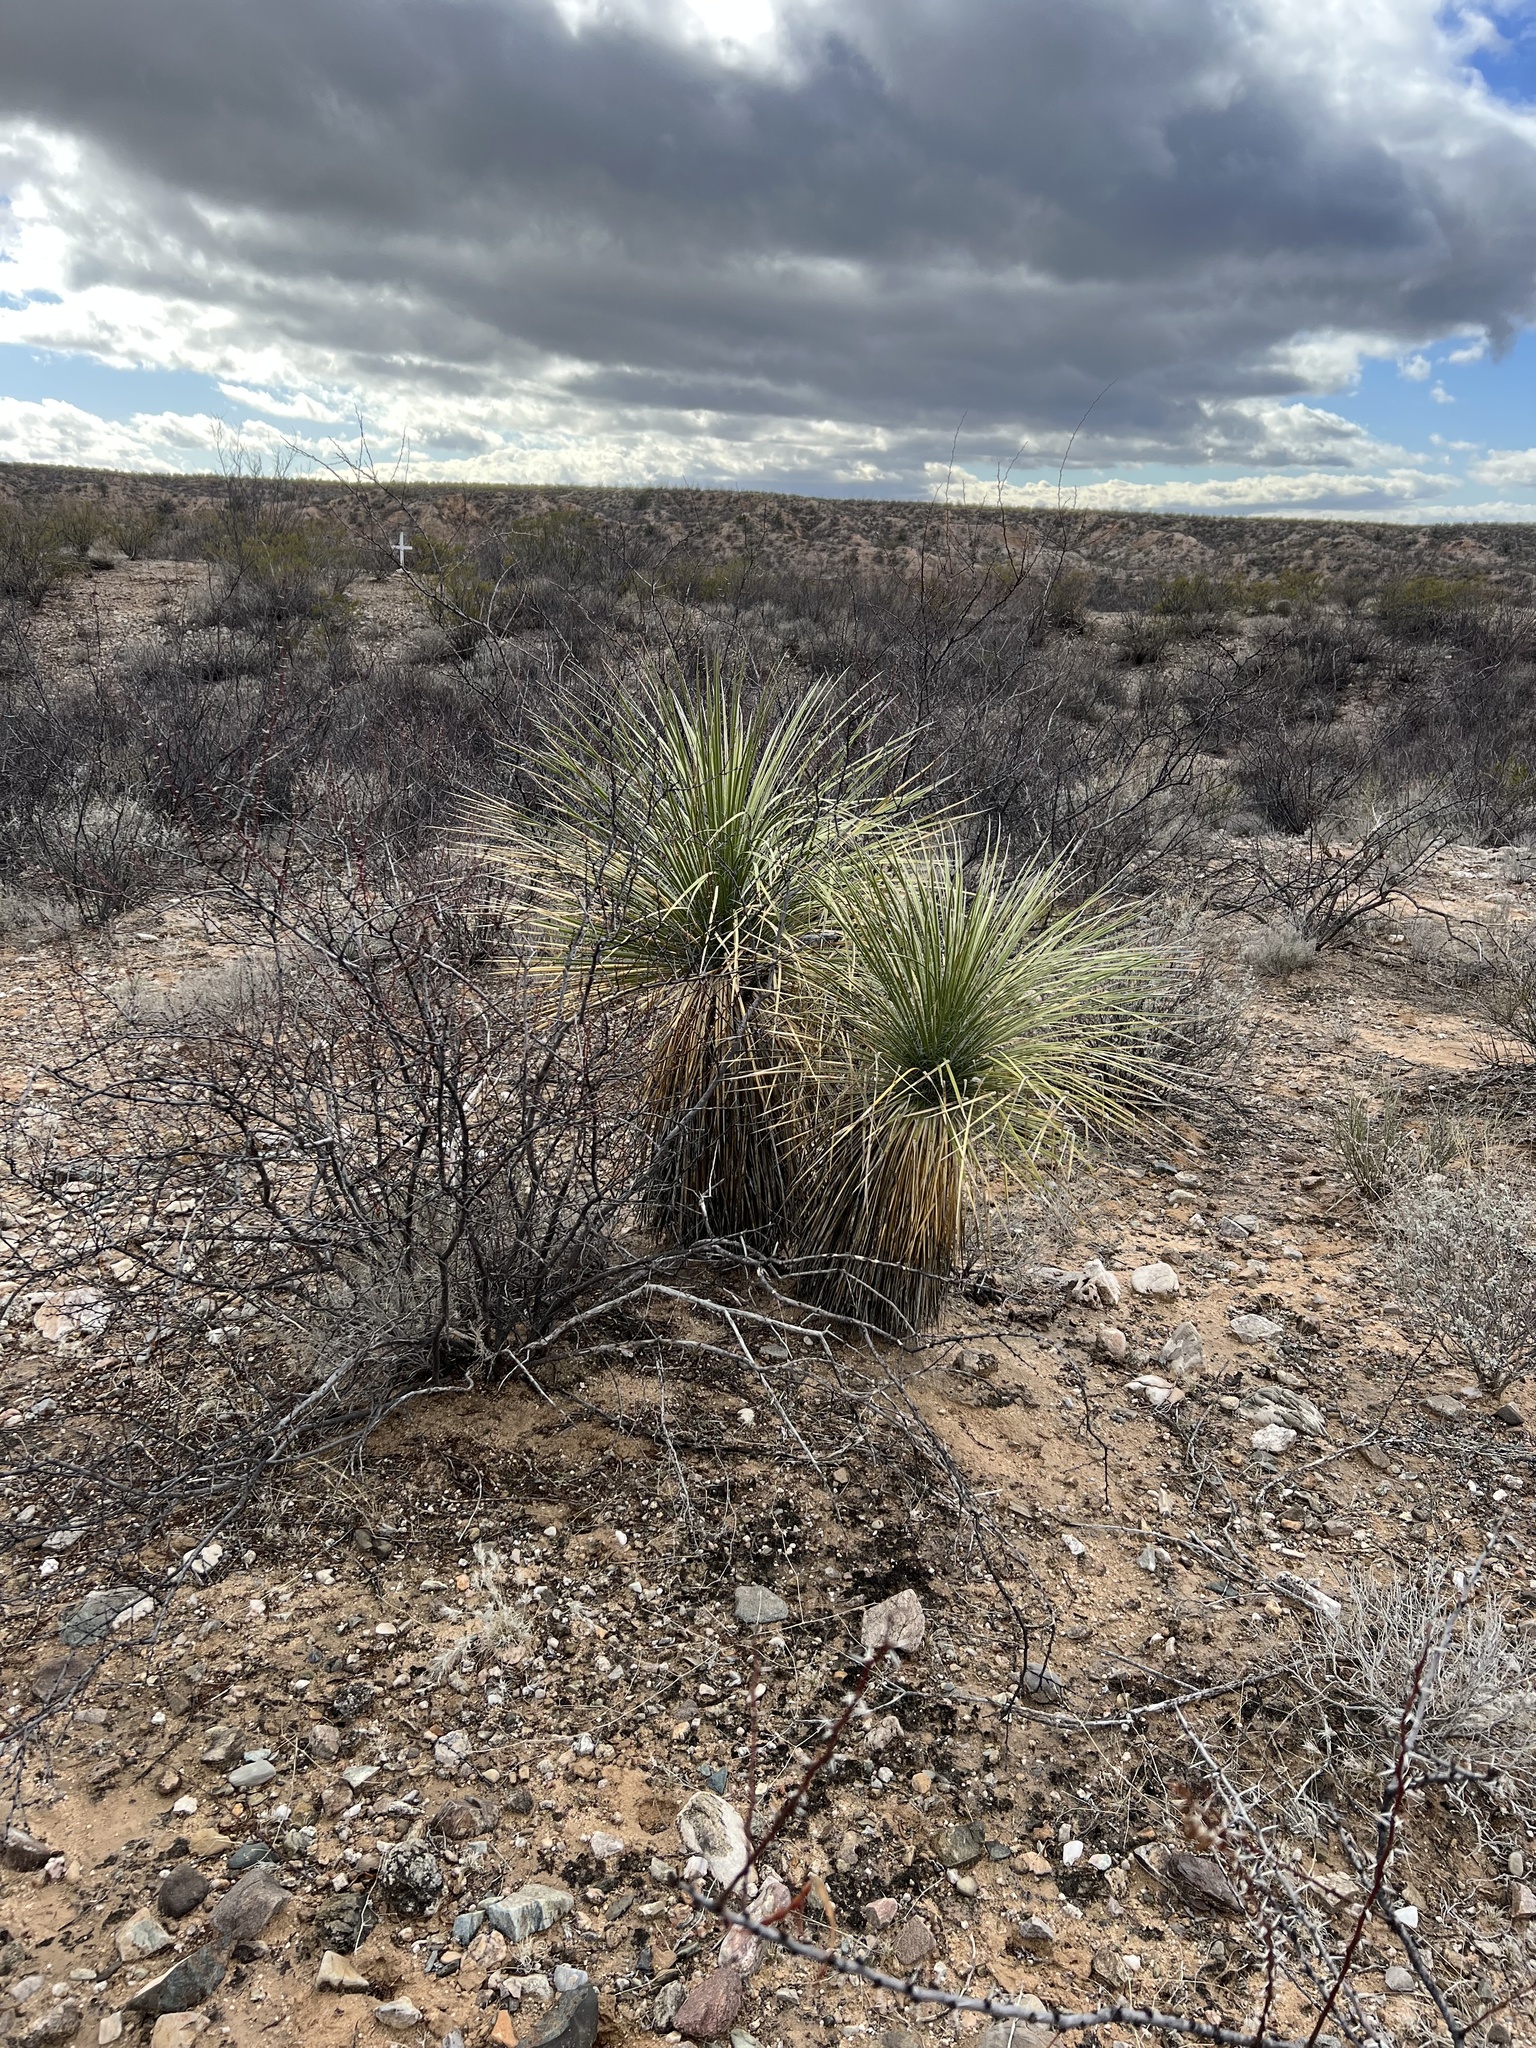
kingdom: Plantae
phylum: Tracheophyta
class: Liliopsida
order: Asparagales
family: Asparagaceae
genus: Yucca
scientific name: Yucca elata
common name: Palmella
